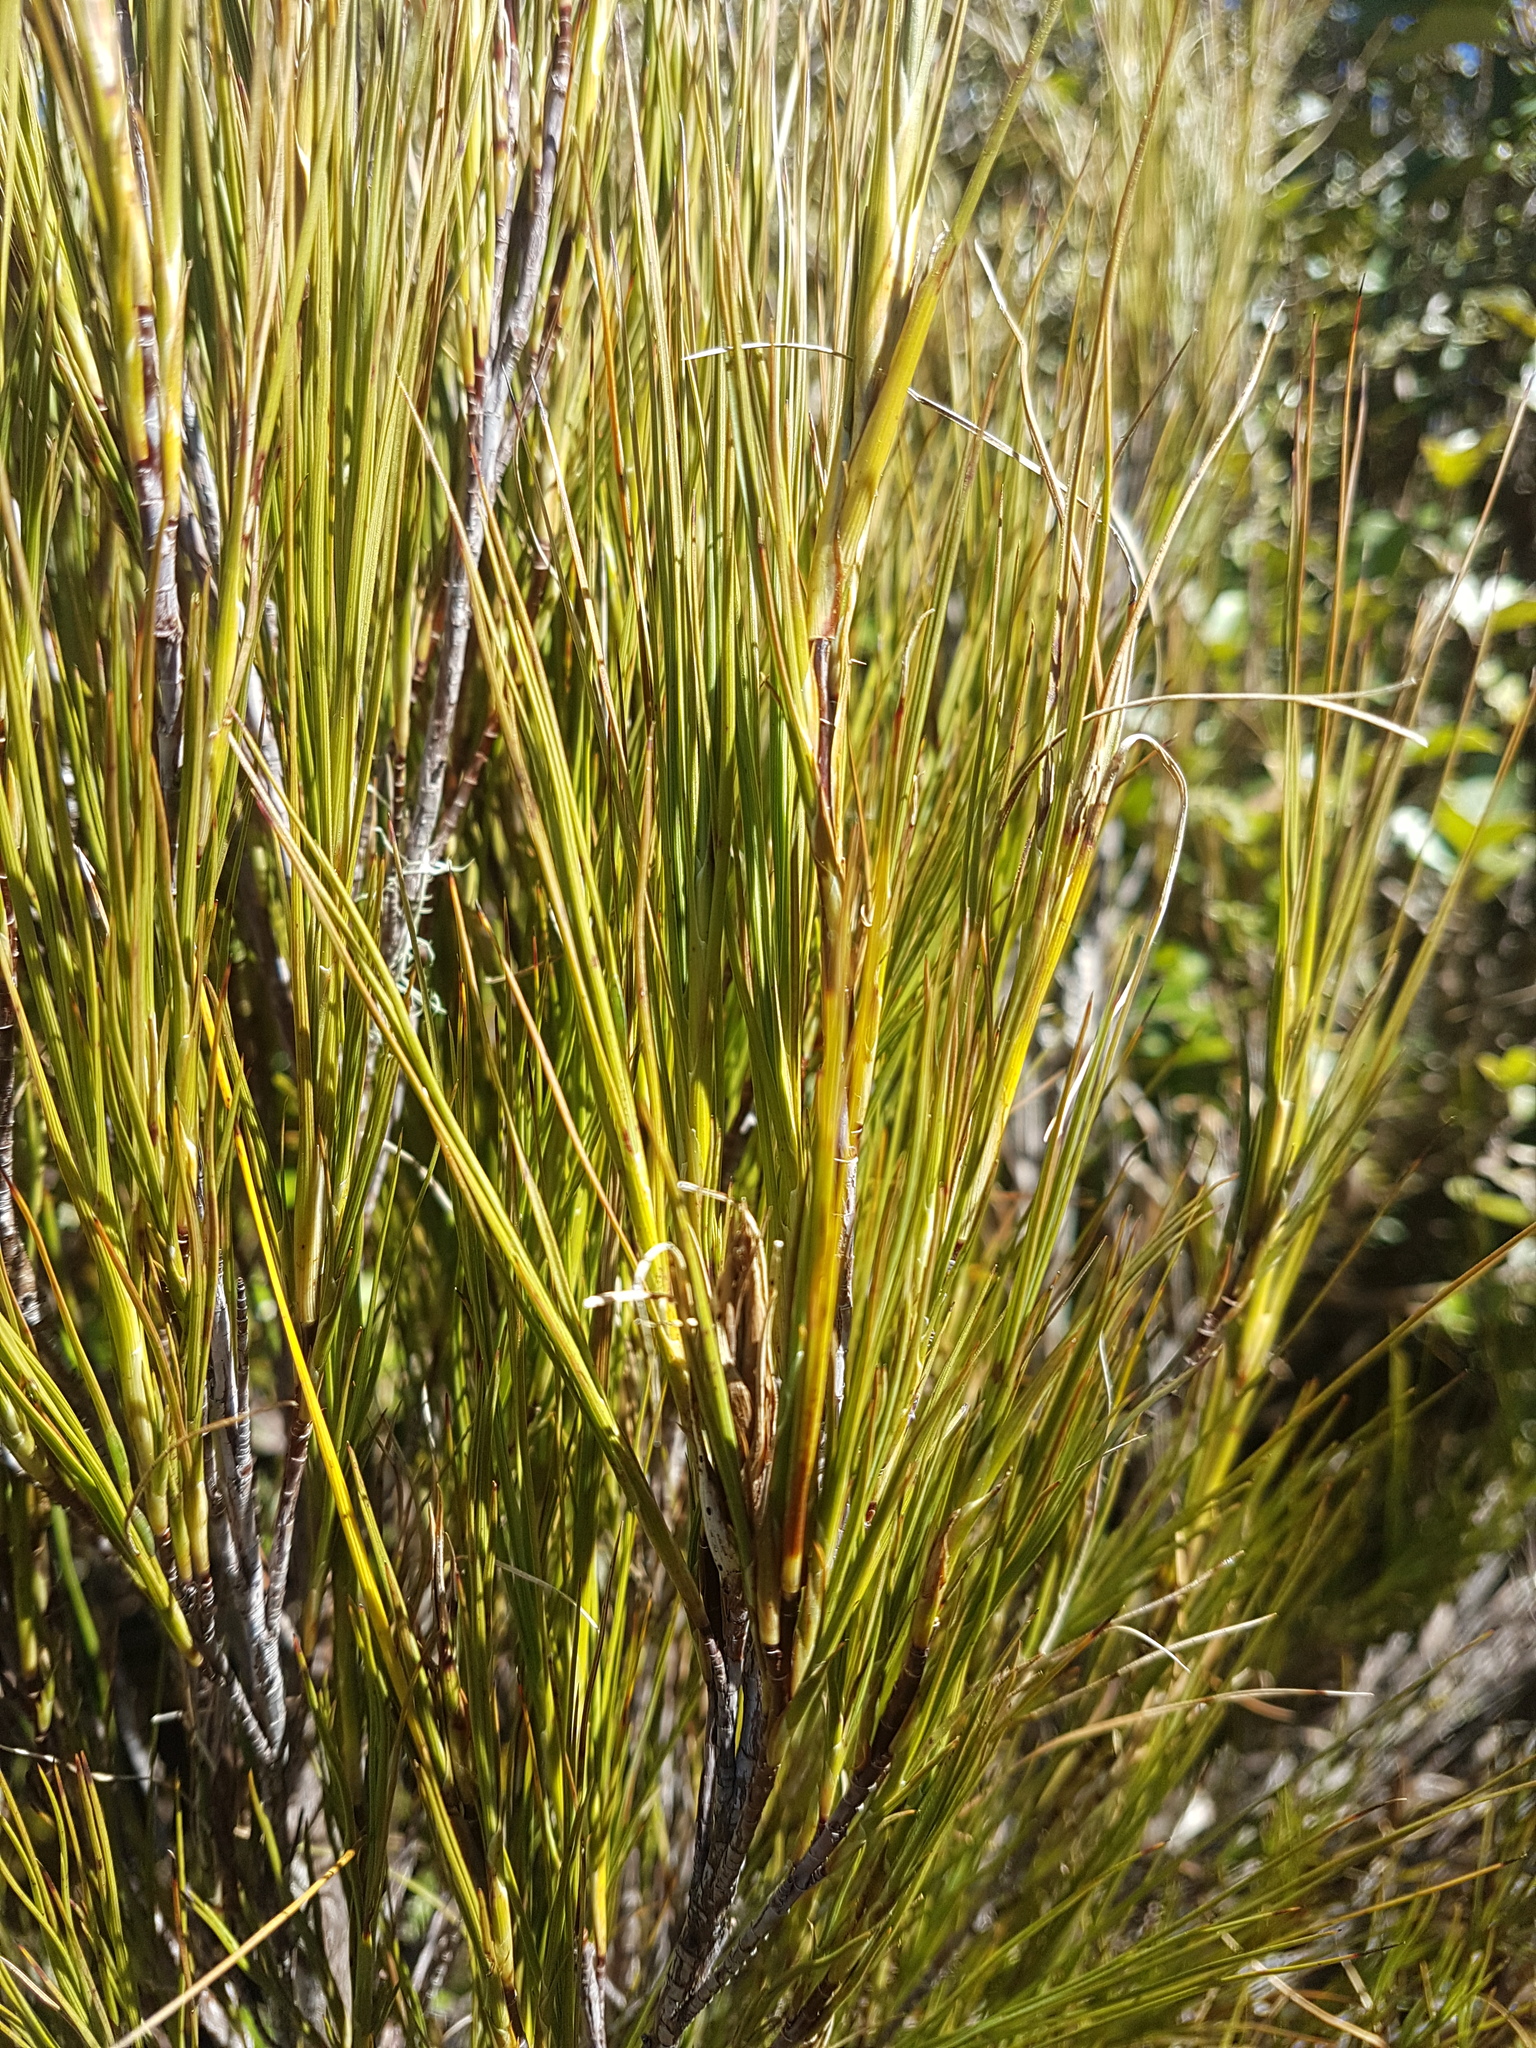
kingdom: Plantae
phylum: Tracheophyta
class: Magnoliopsida
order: Ericales
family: Ericaceae
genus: Dracophyllum
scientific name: Dracophyllum filifolium
